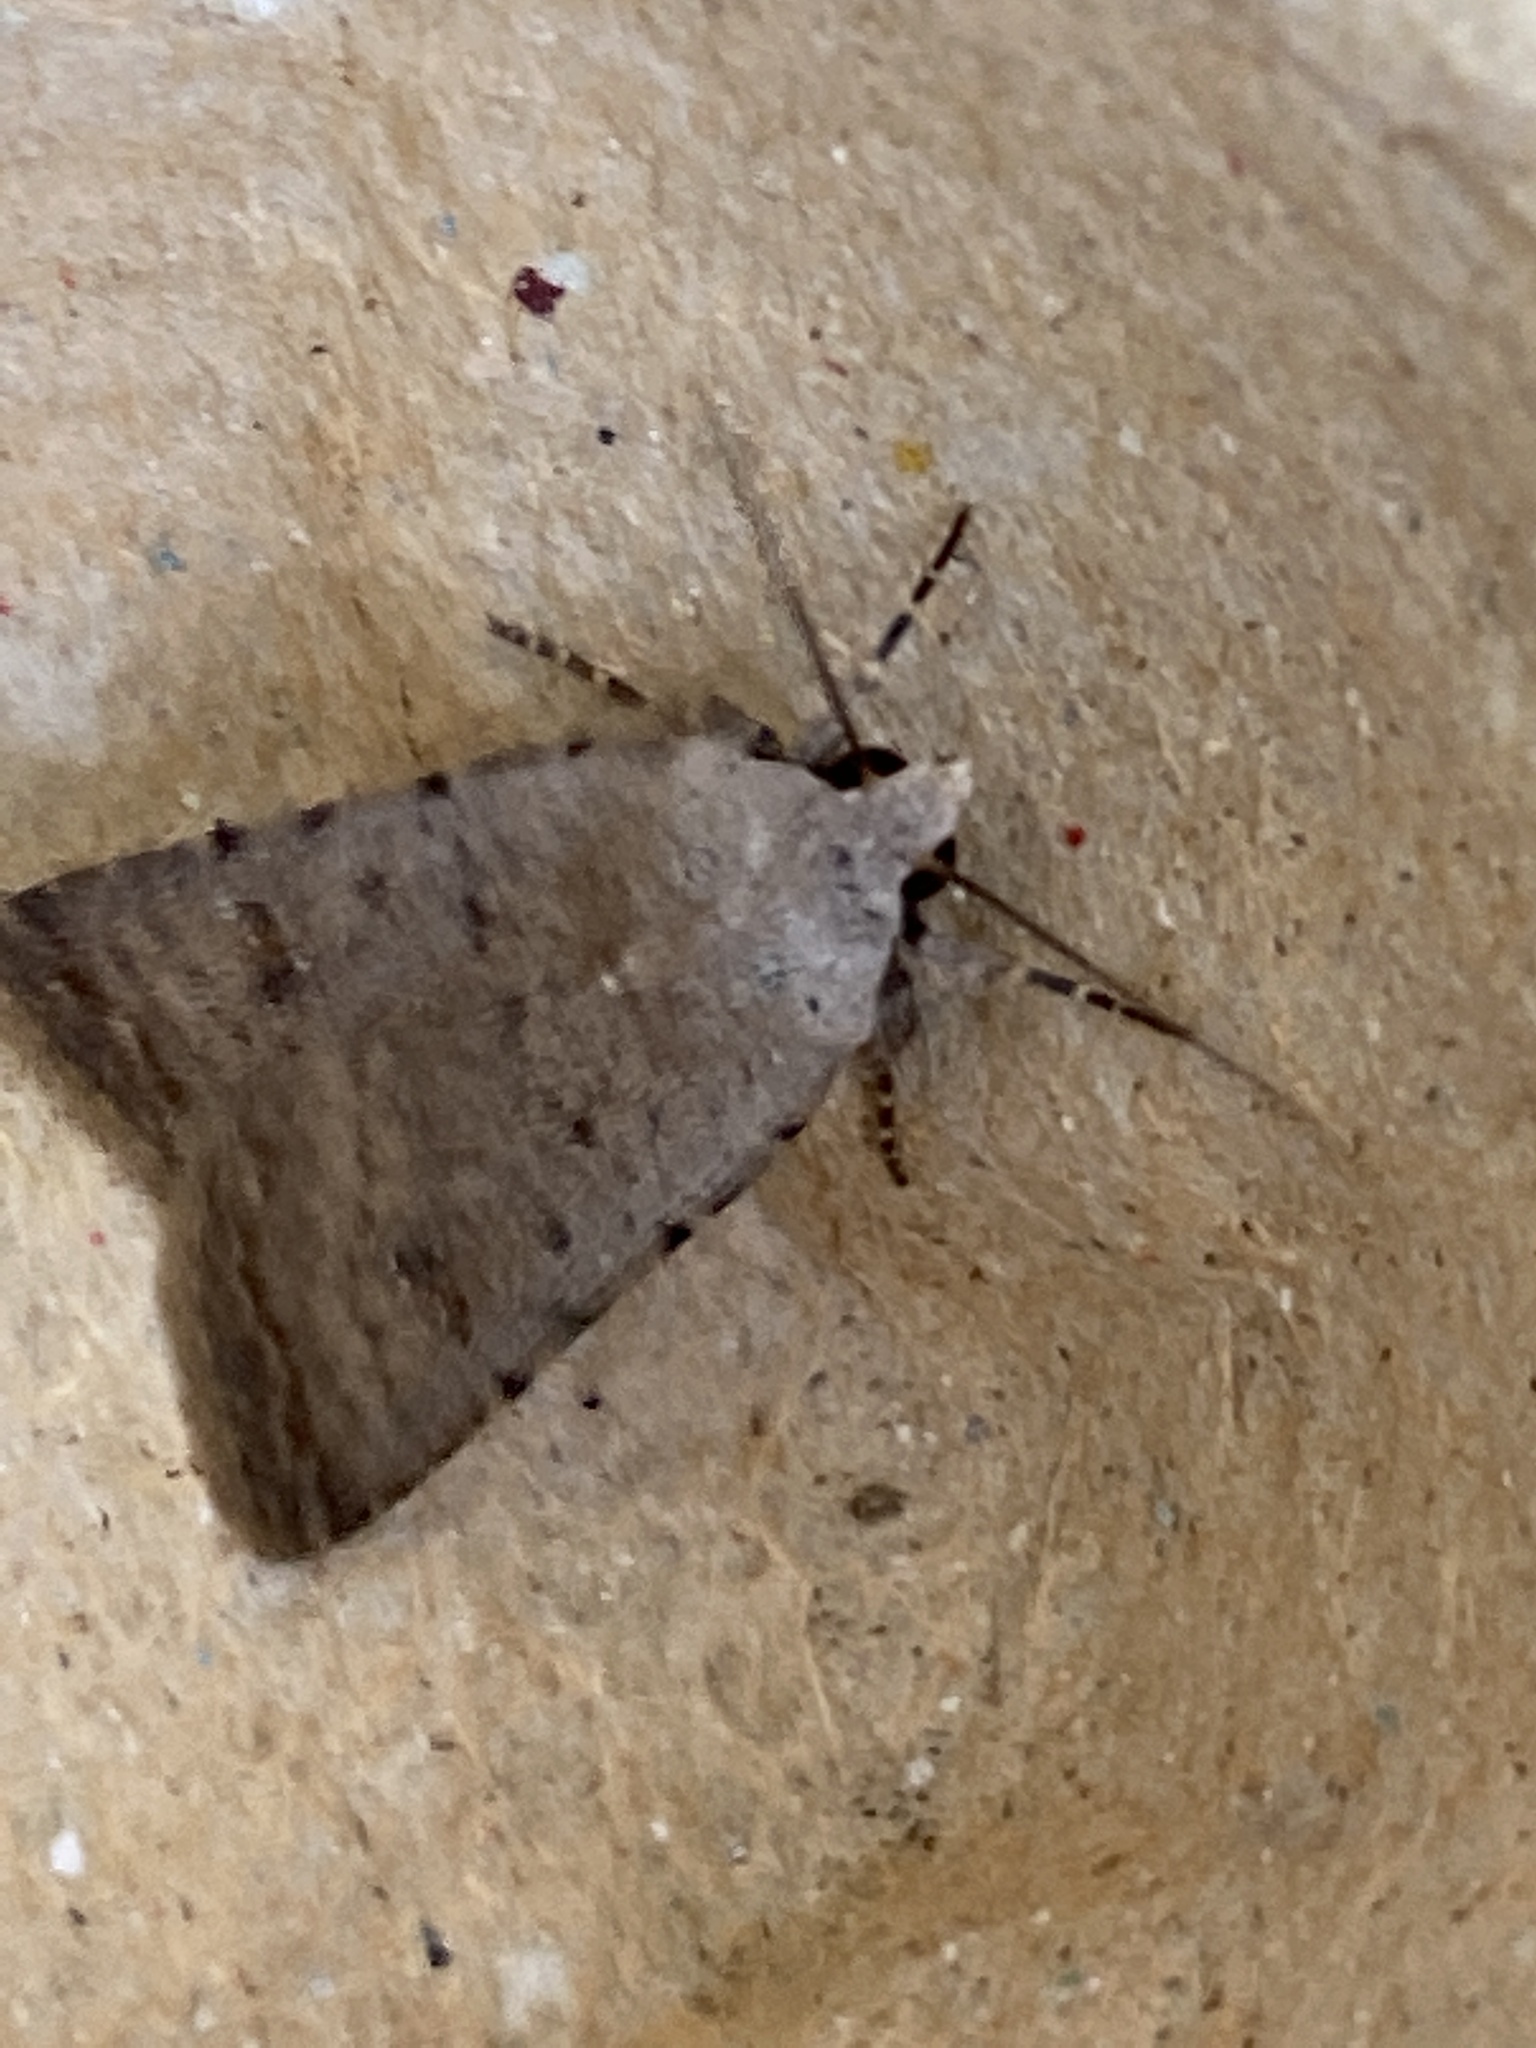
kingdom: Animalia
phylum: Arthropoda
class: Insecta
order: Lepidoptera
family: Noctuidae
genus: Caradrina
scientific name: Caradrina clavipalpis
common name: Pale mottled willow
